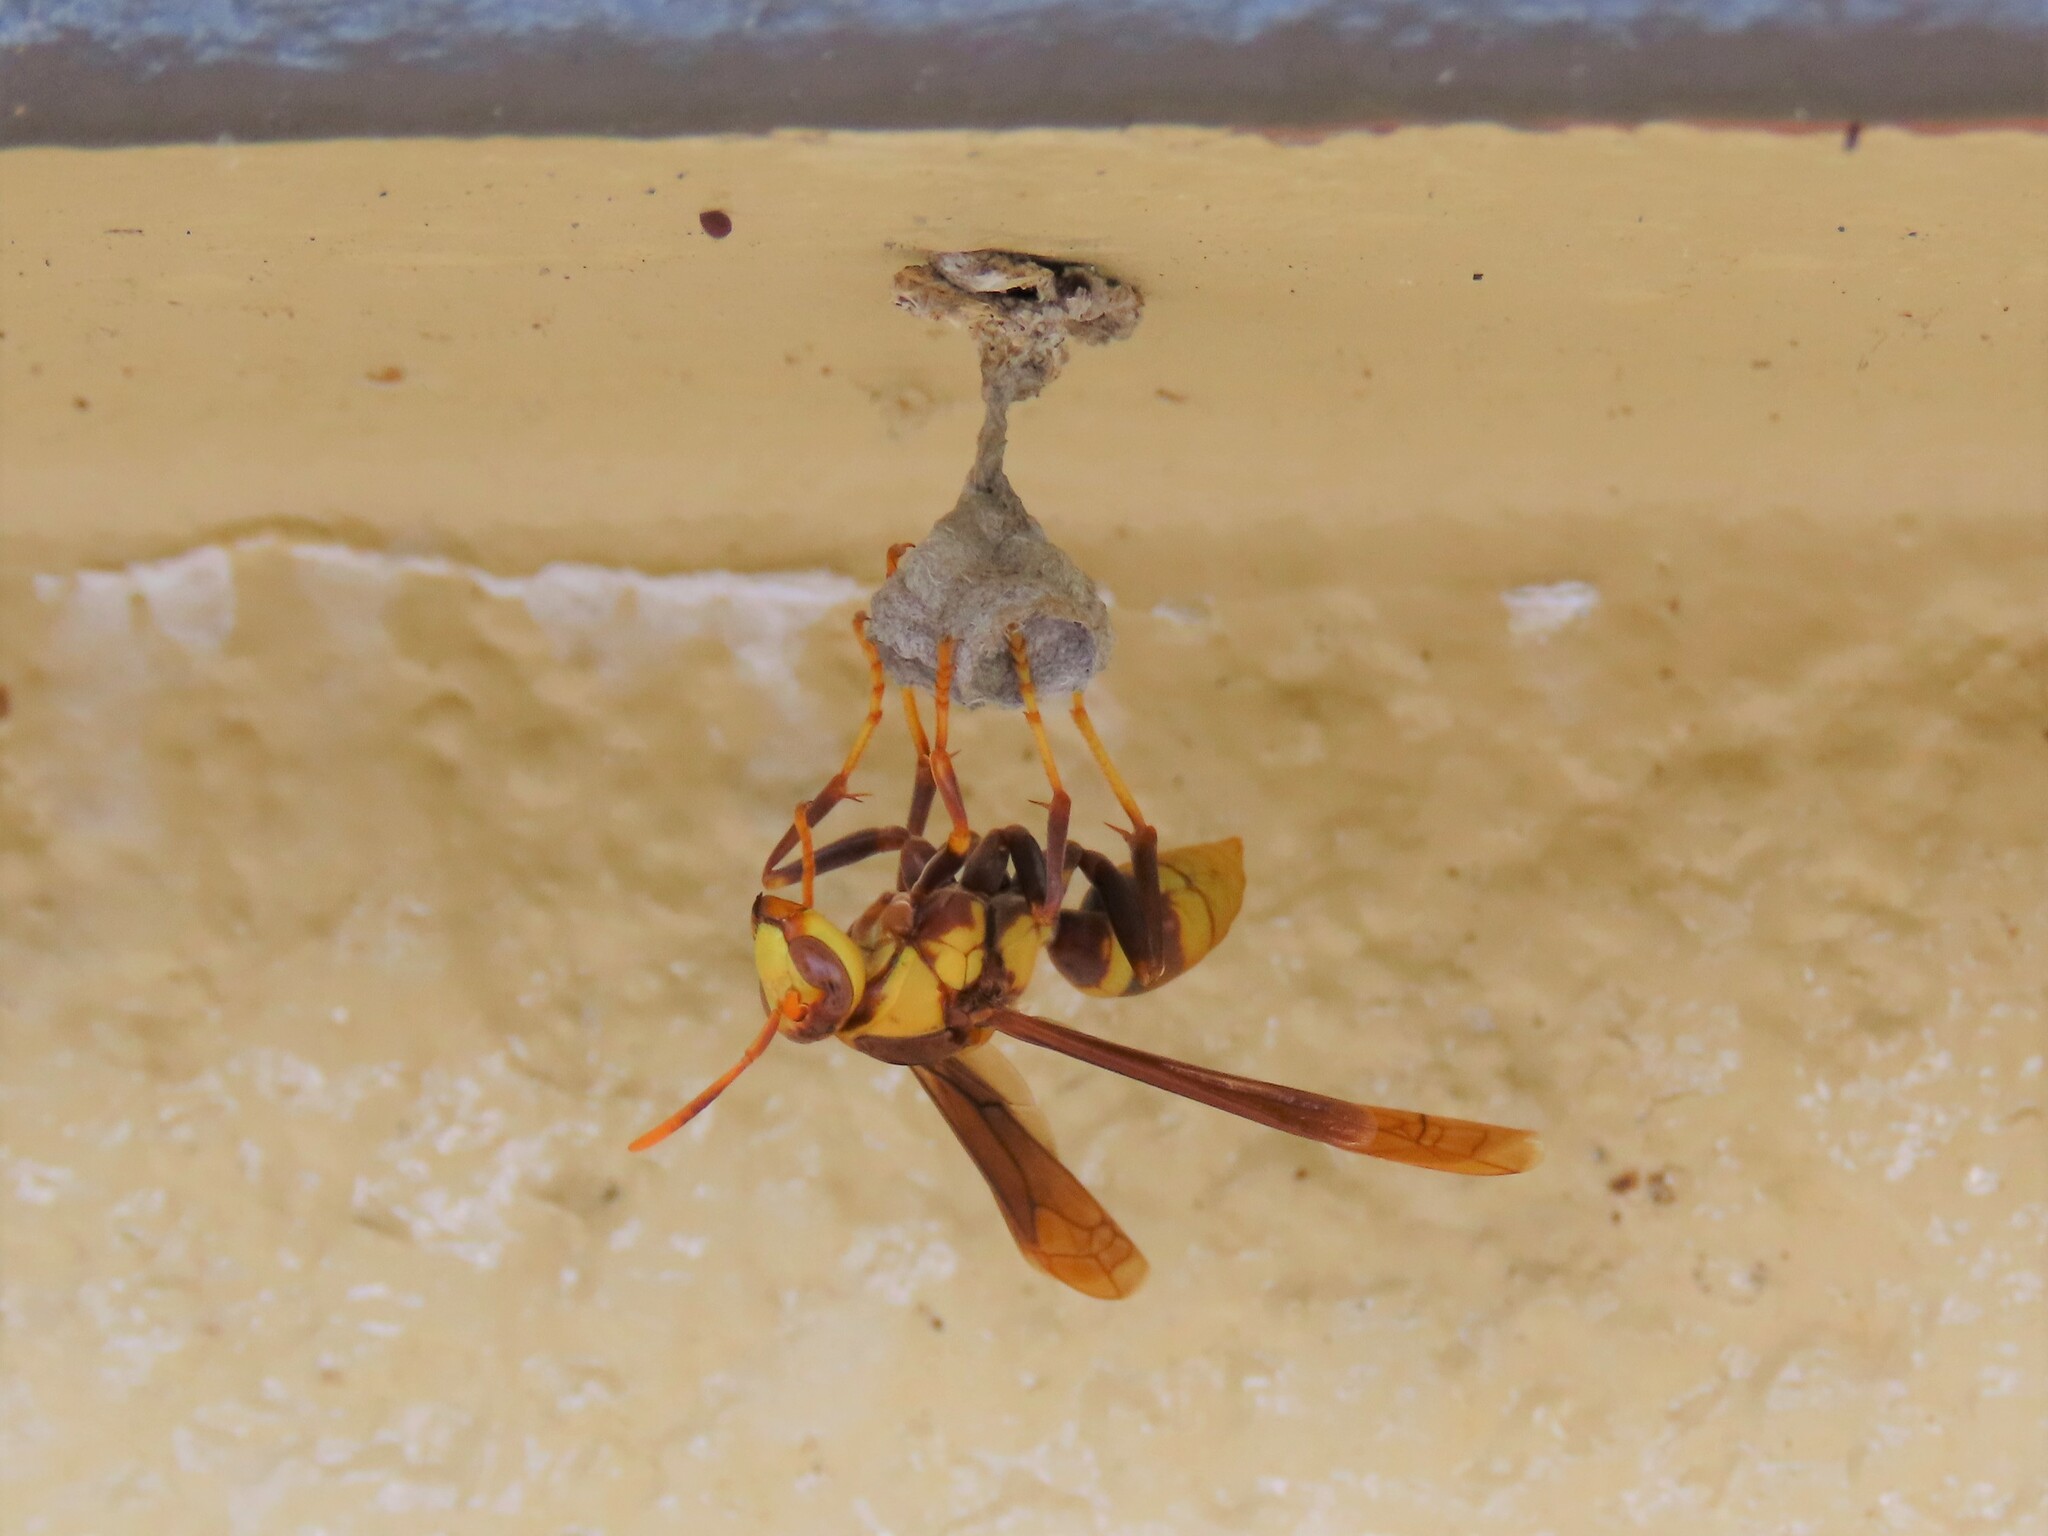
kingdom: Animalia
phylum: Arthropoda
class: Insecta
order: Hymenoptera
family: Eumenidae
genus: Polistes
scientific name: Polistes major
